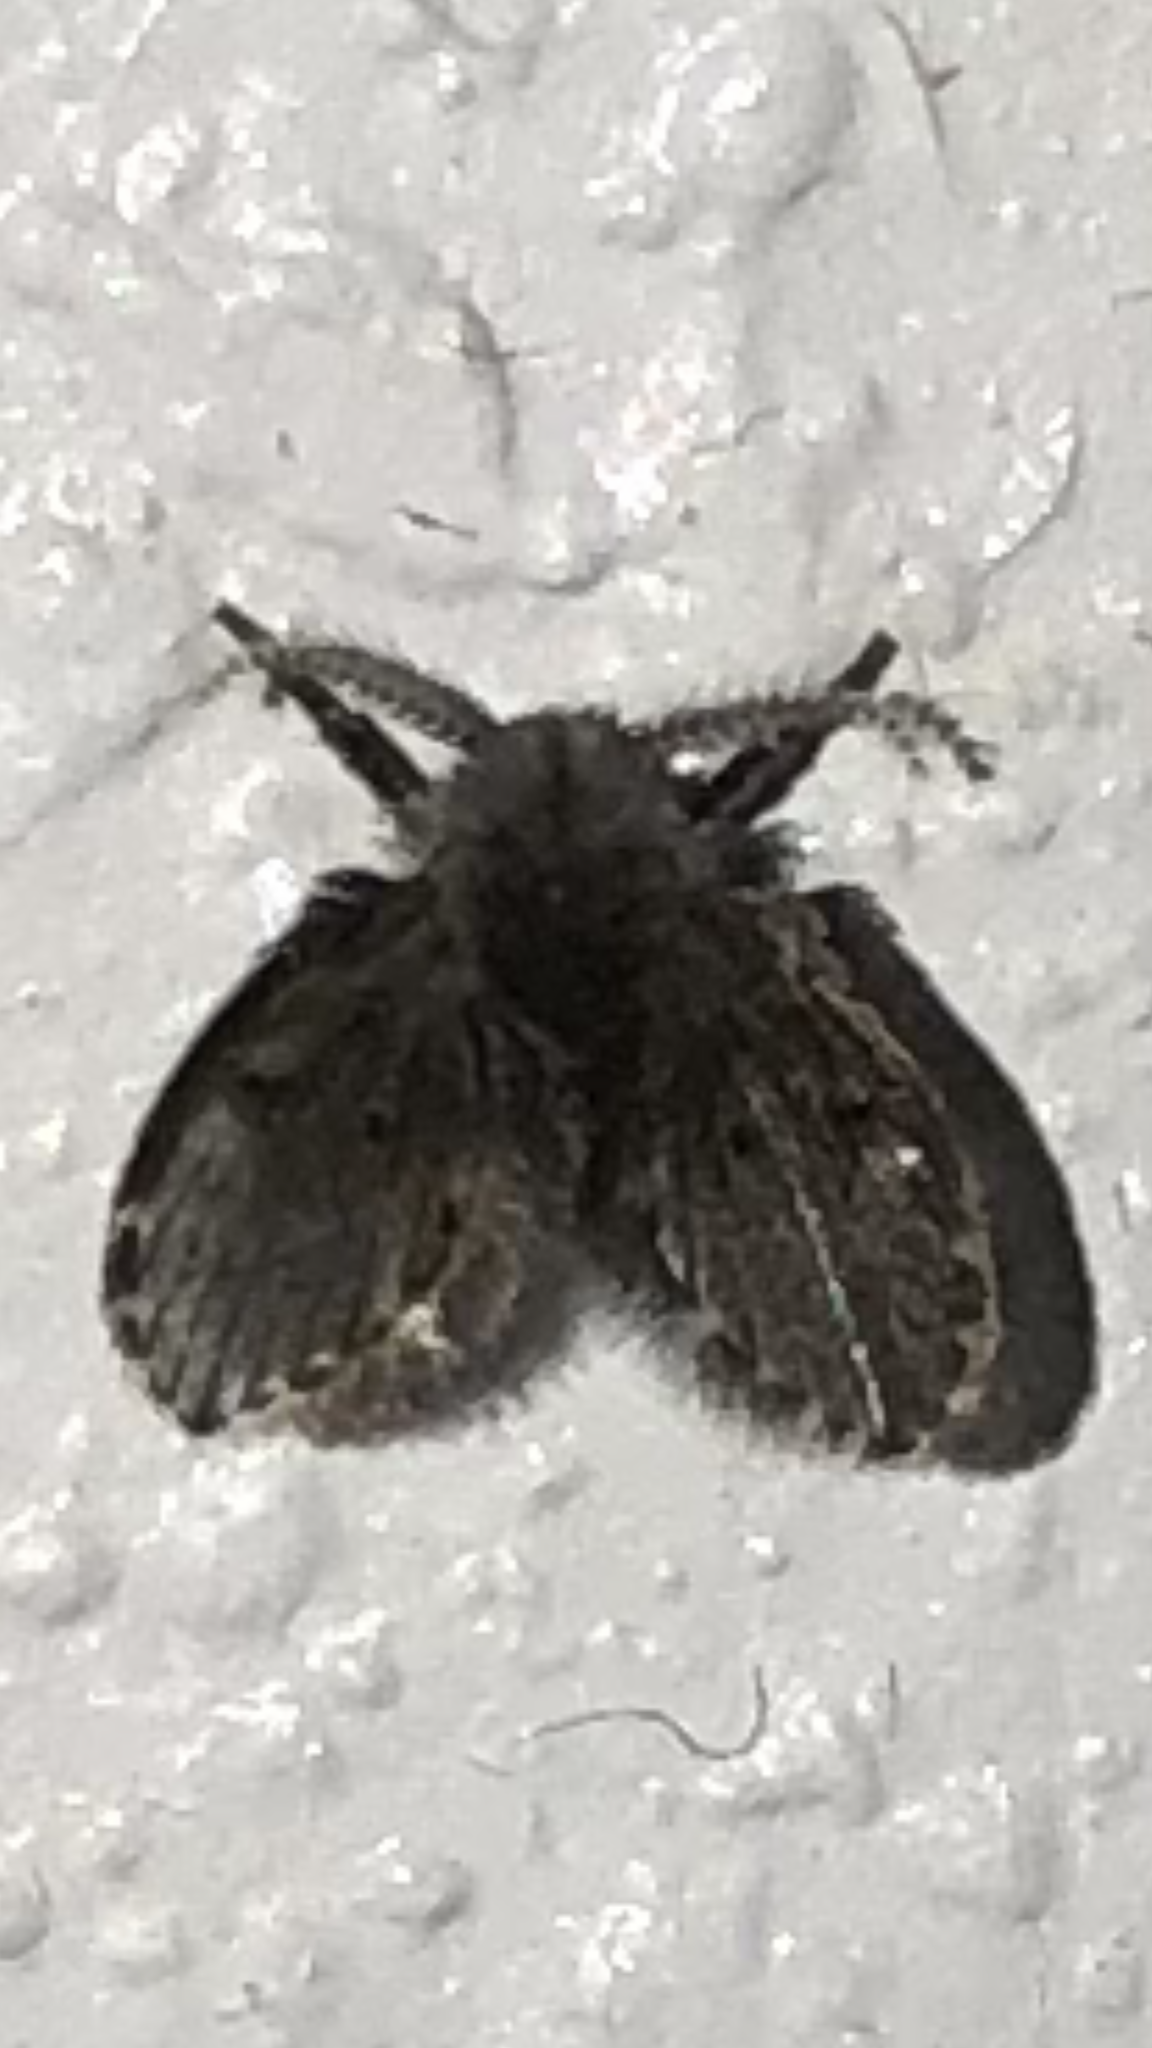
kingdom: Animalia
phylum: Arthropoda
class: Insecta
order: Diptera
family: Psychodidae
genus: Clogmia
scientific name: Clogmia albipunctatus
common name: White-spotted moth fly
